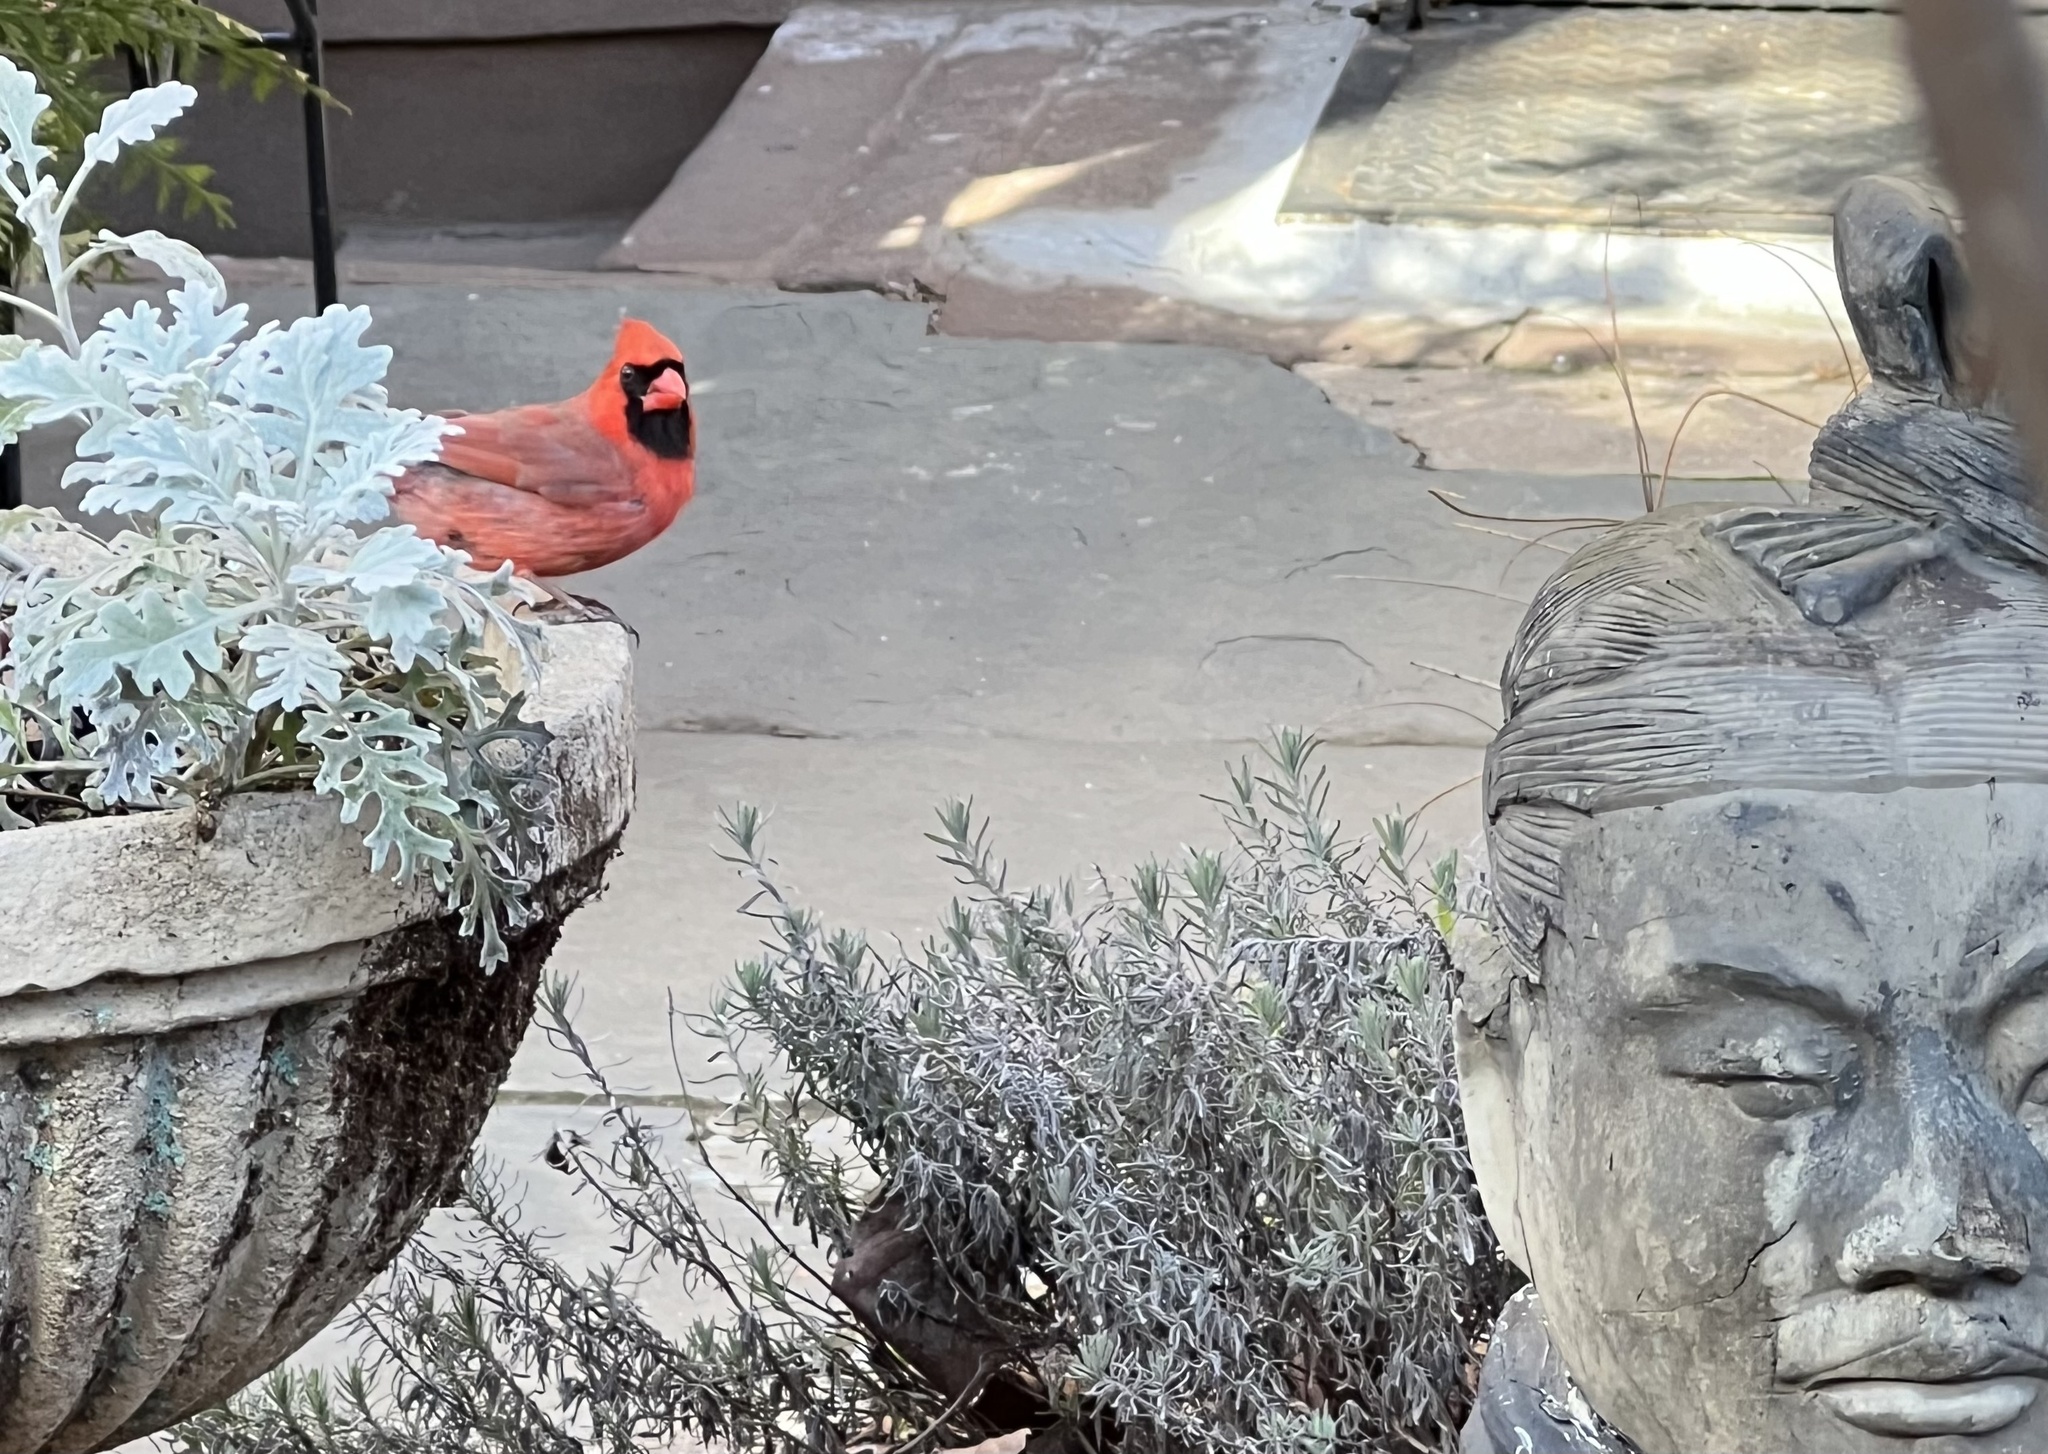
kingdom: Animalia
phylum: Chordata
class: Aves
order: Passeriformes
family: Cardinalidae
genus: Cardinalis
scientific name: Cardinalis cardinalis
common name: Northern cardinal
